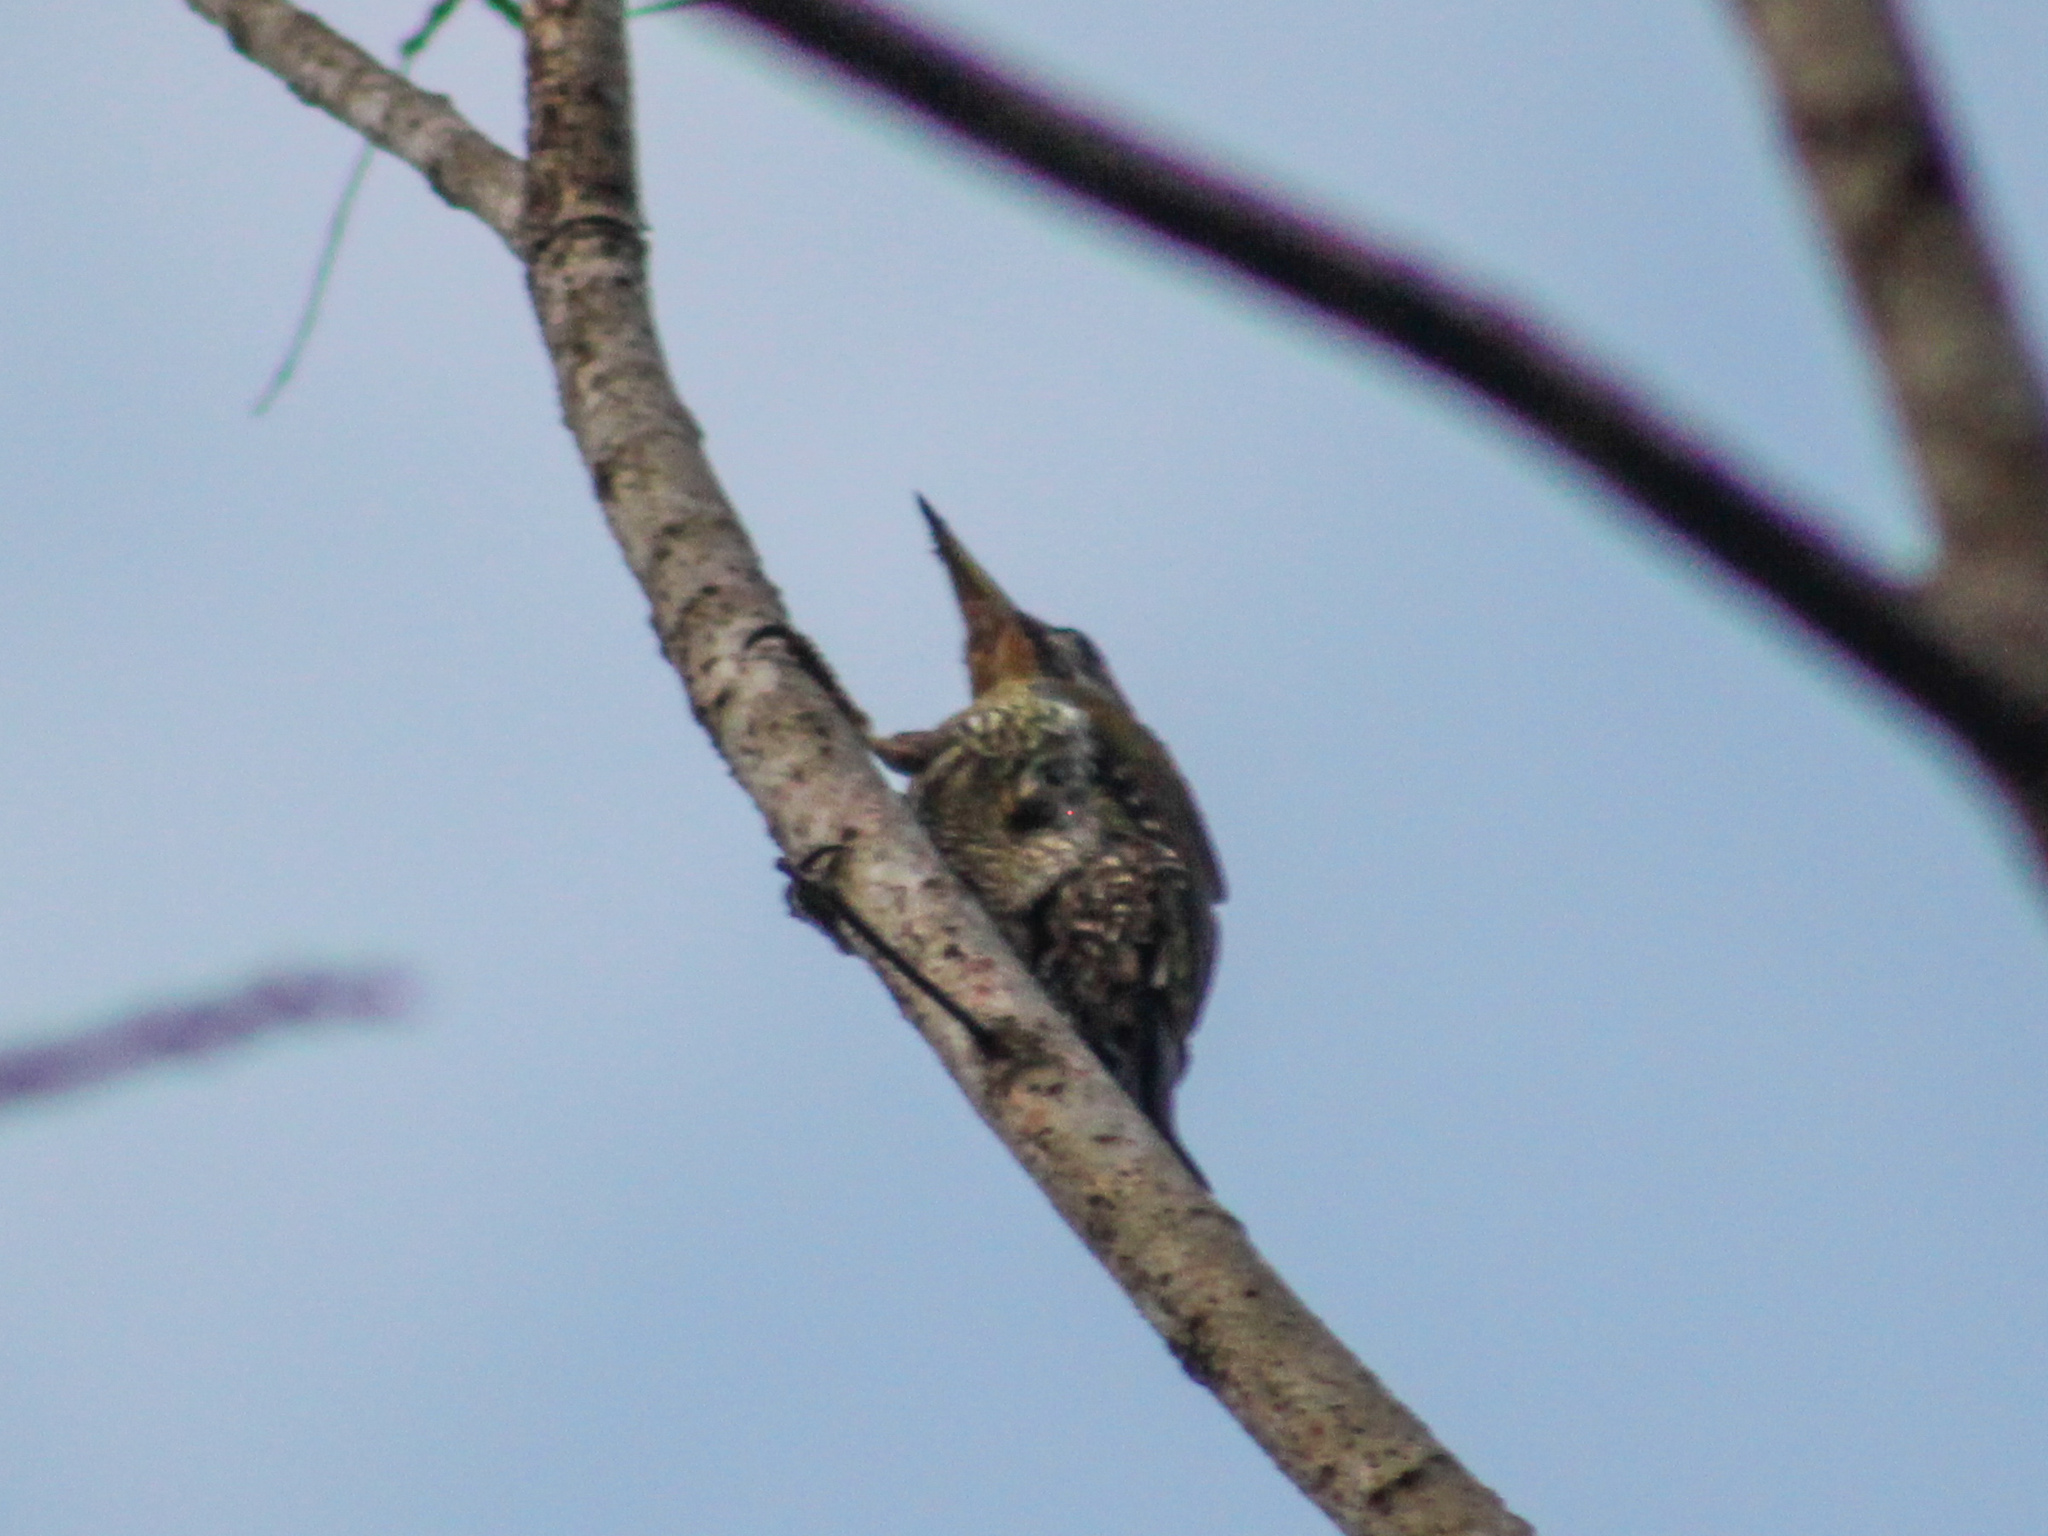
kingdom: Animalia
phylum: Chordata
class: Aves
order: Piciformes
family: Picidae
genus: Picus
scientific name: Picus vittatus
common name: Laced woodpecker
